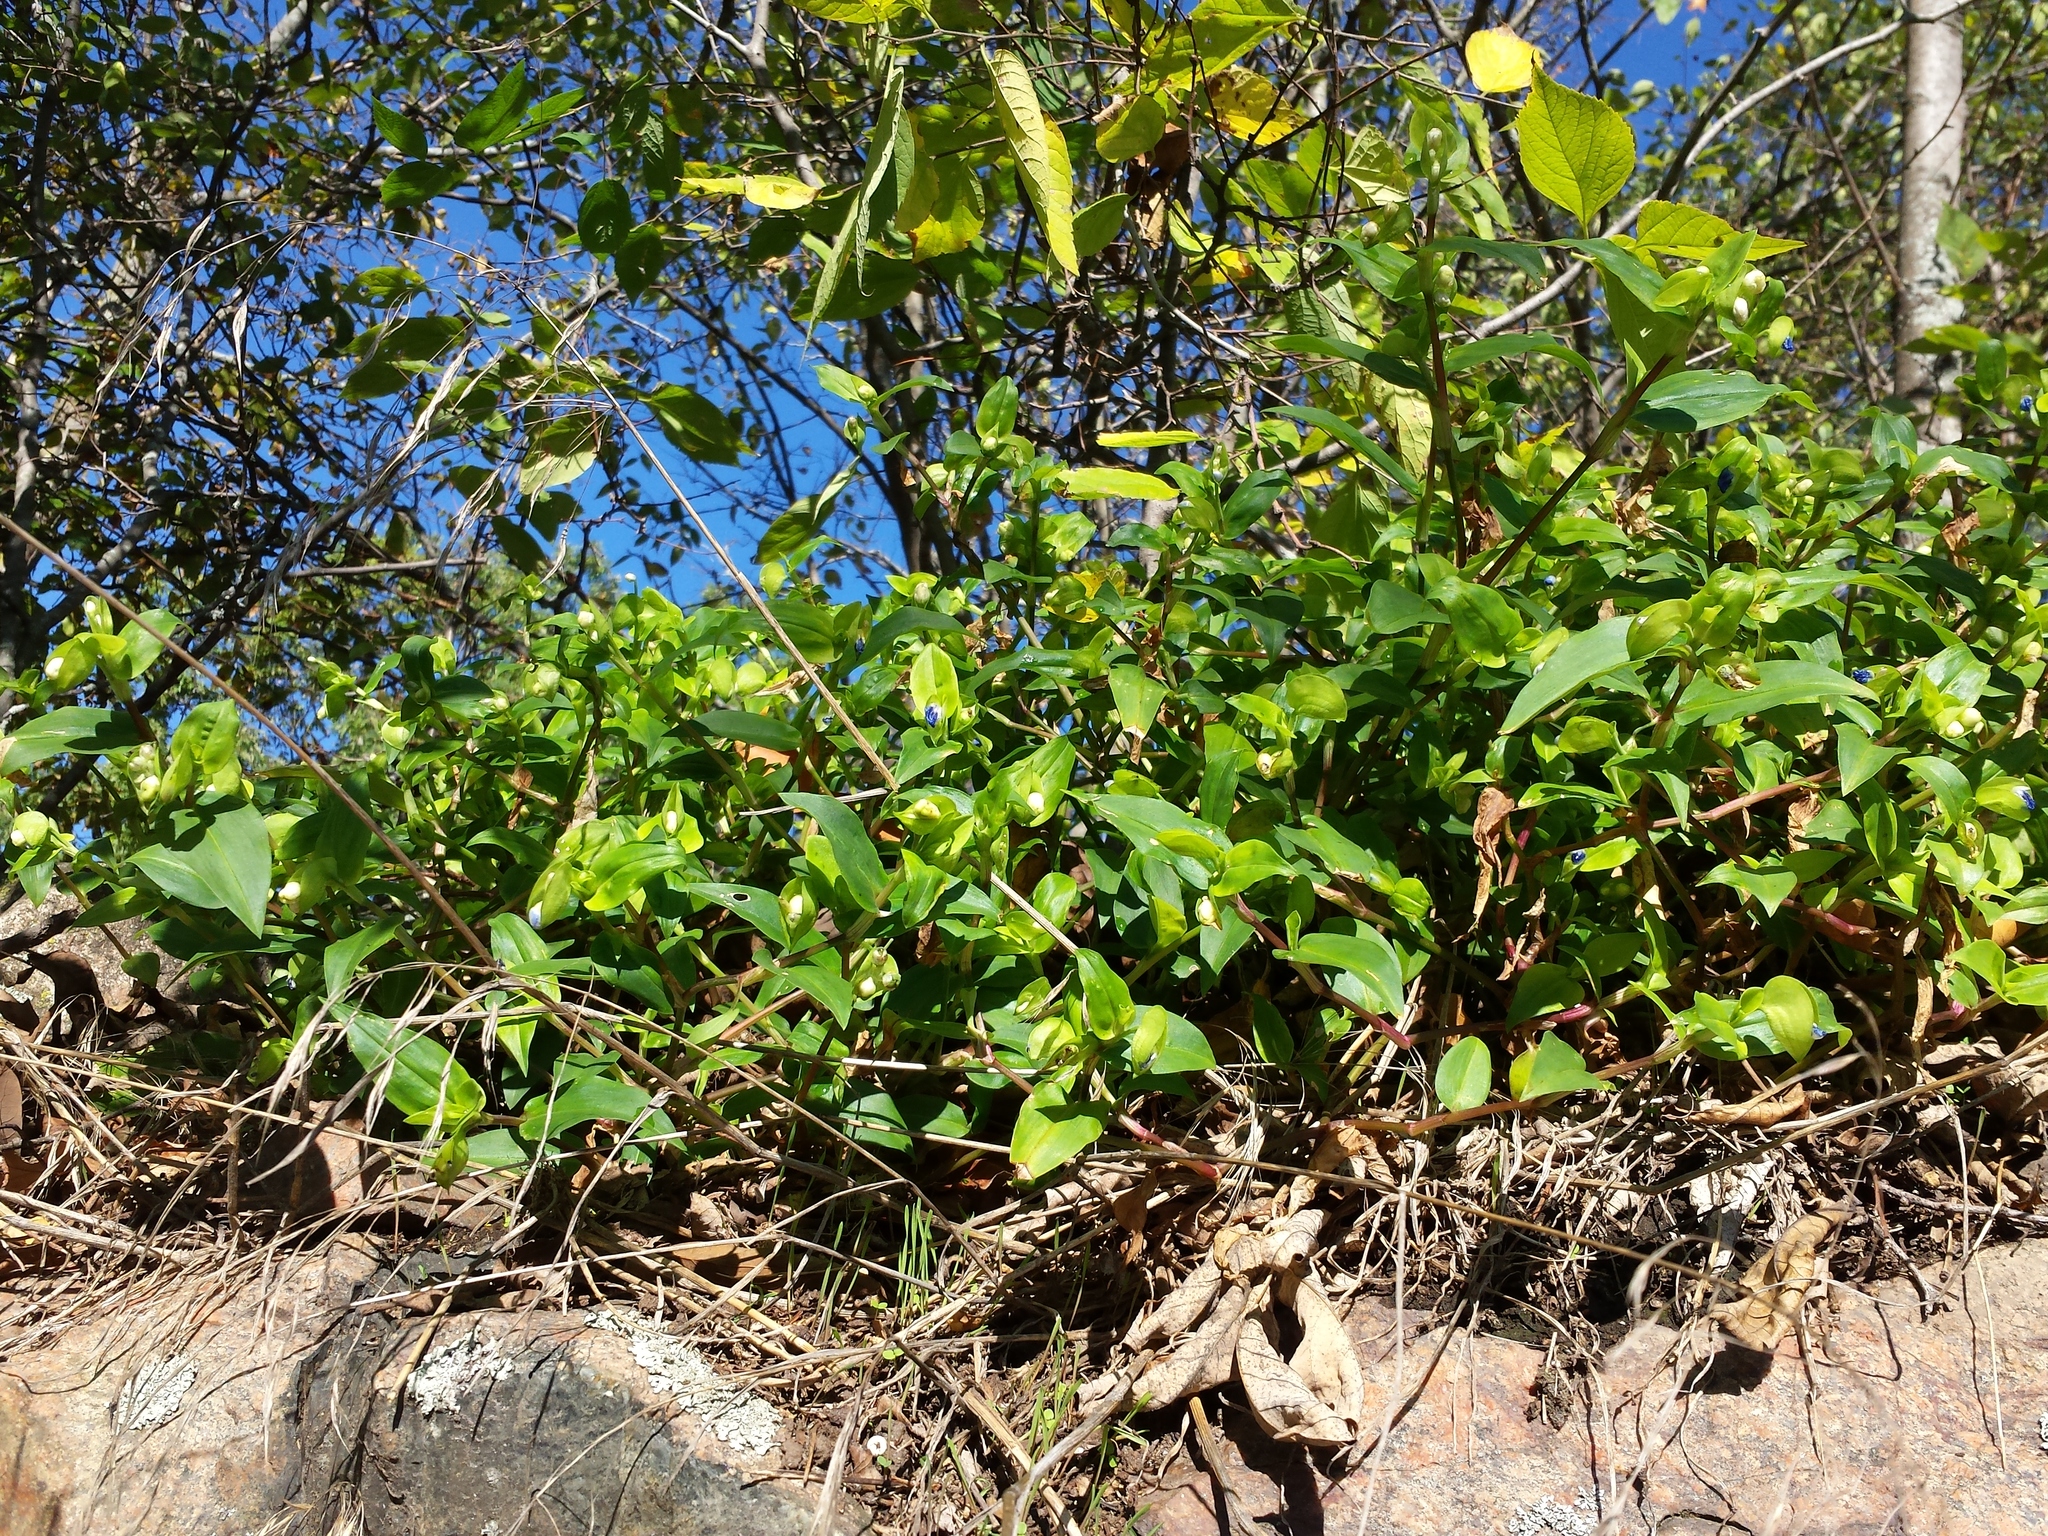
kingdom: Plantae
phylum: Tracheophyta
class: Liliopsida
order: Commelinales
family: Commelinaceae
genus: Commelina
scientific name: Commelina communis
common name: Asiatic dayflower
